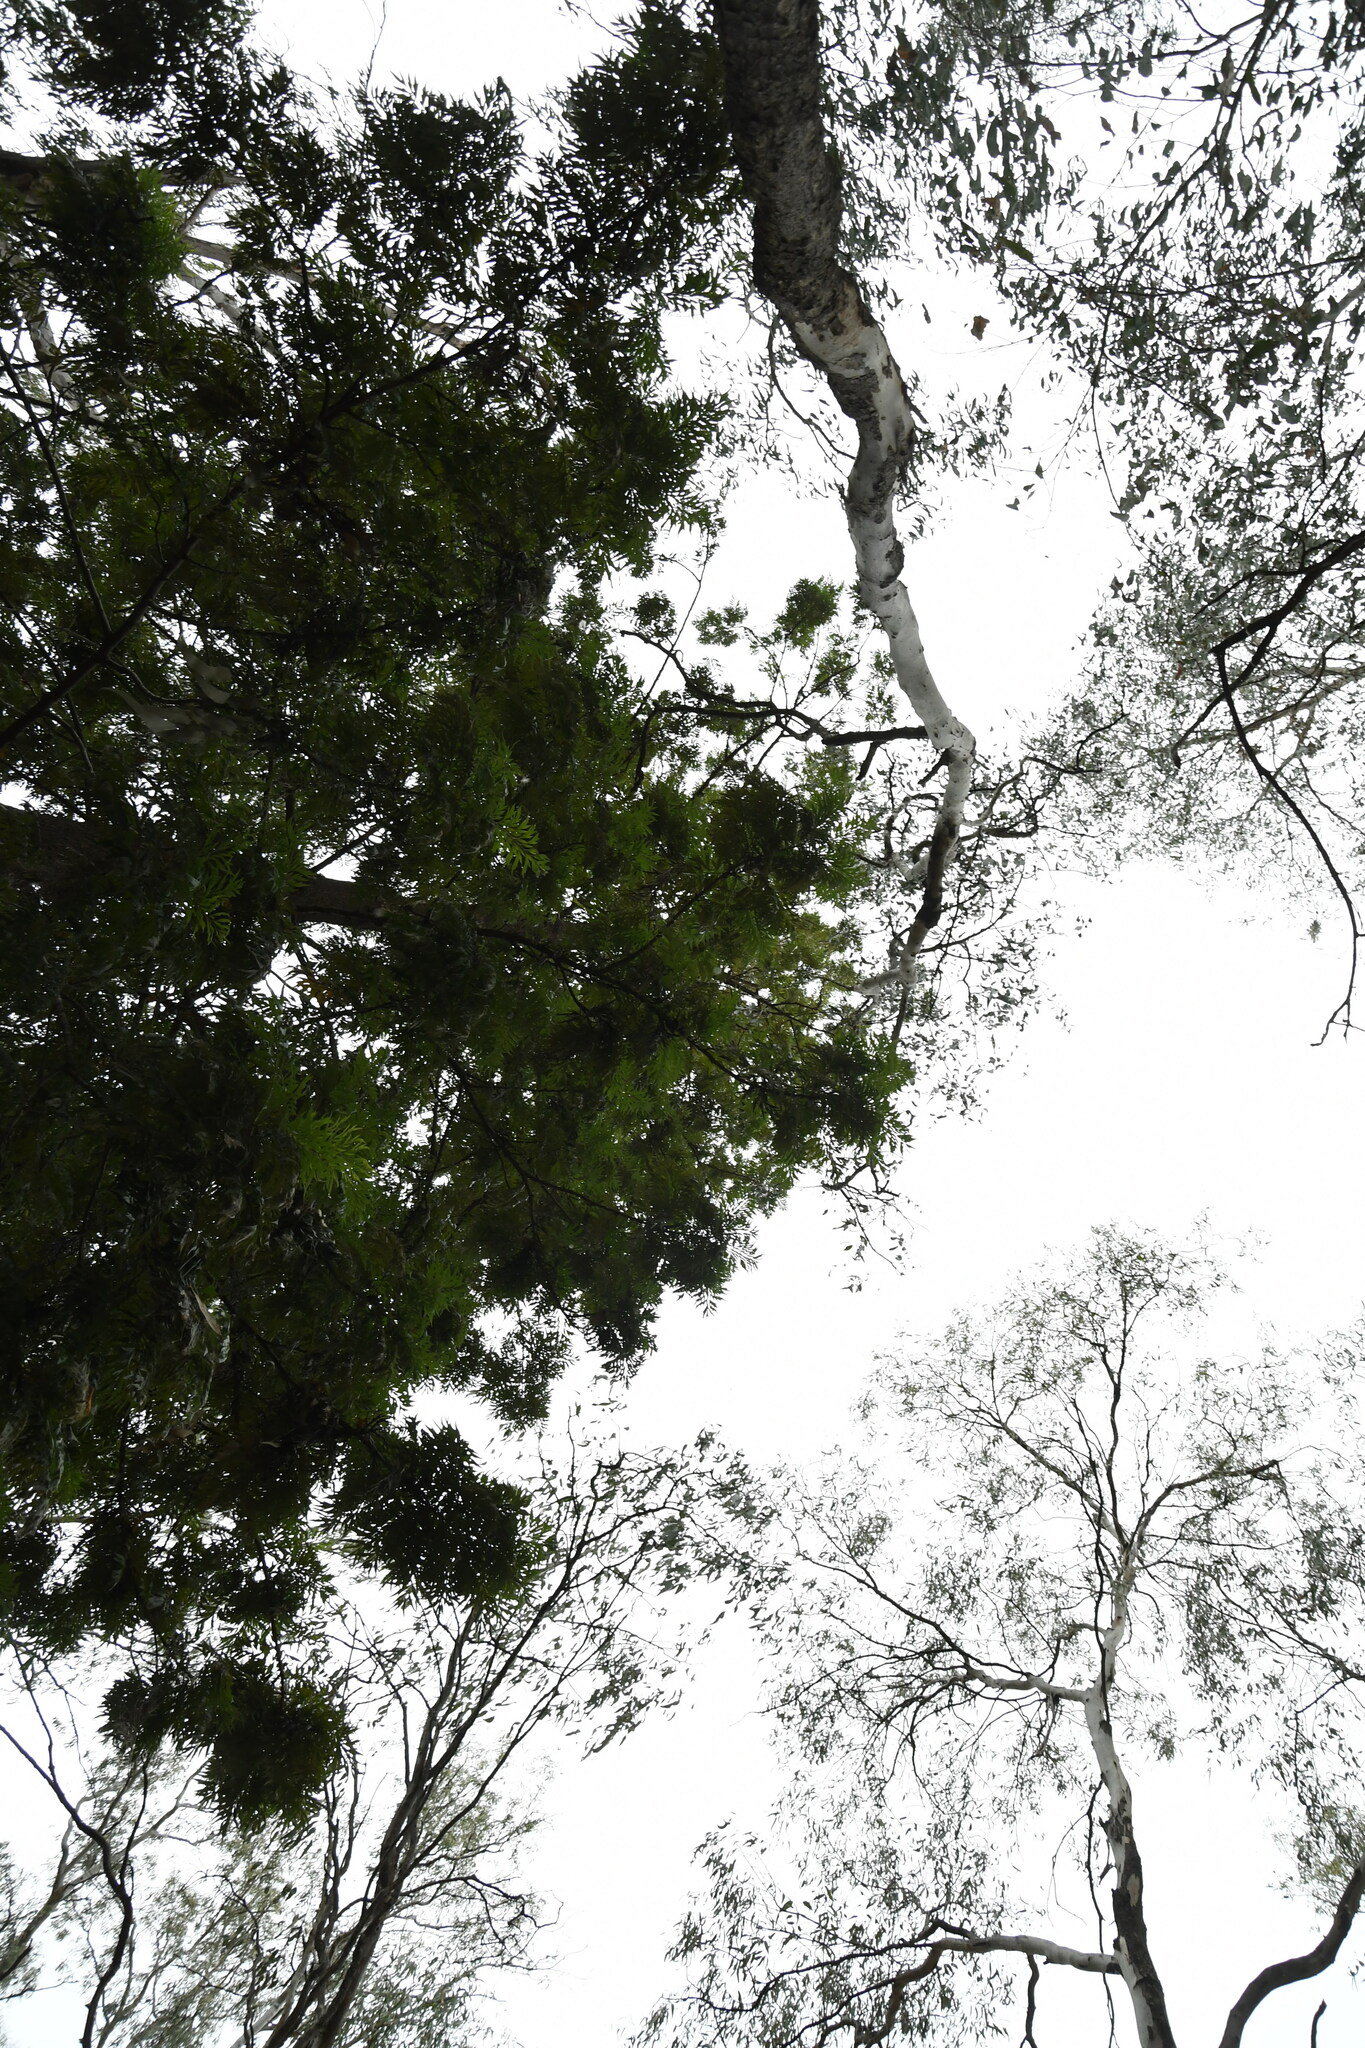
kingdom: Plantae
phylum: Tracheophyta
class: Magnoliopsida
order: Proteales
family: Proteaceae
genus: Grevillea
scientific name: Grevillea robusta
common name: Silkoak
